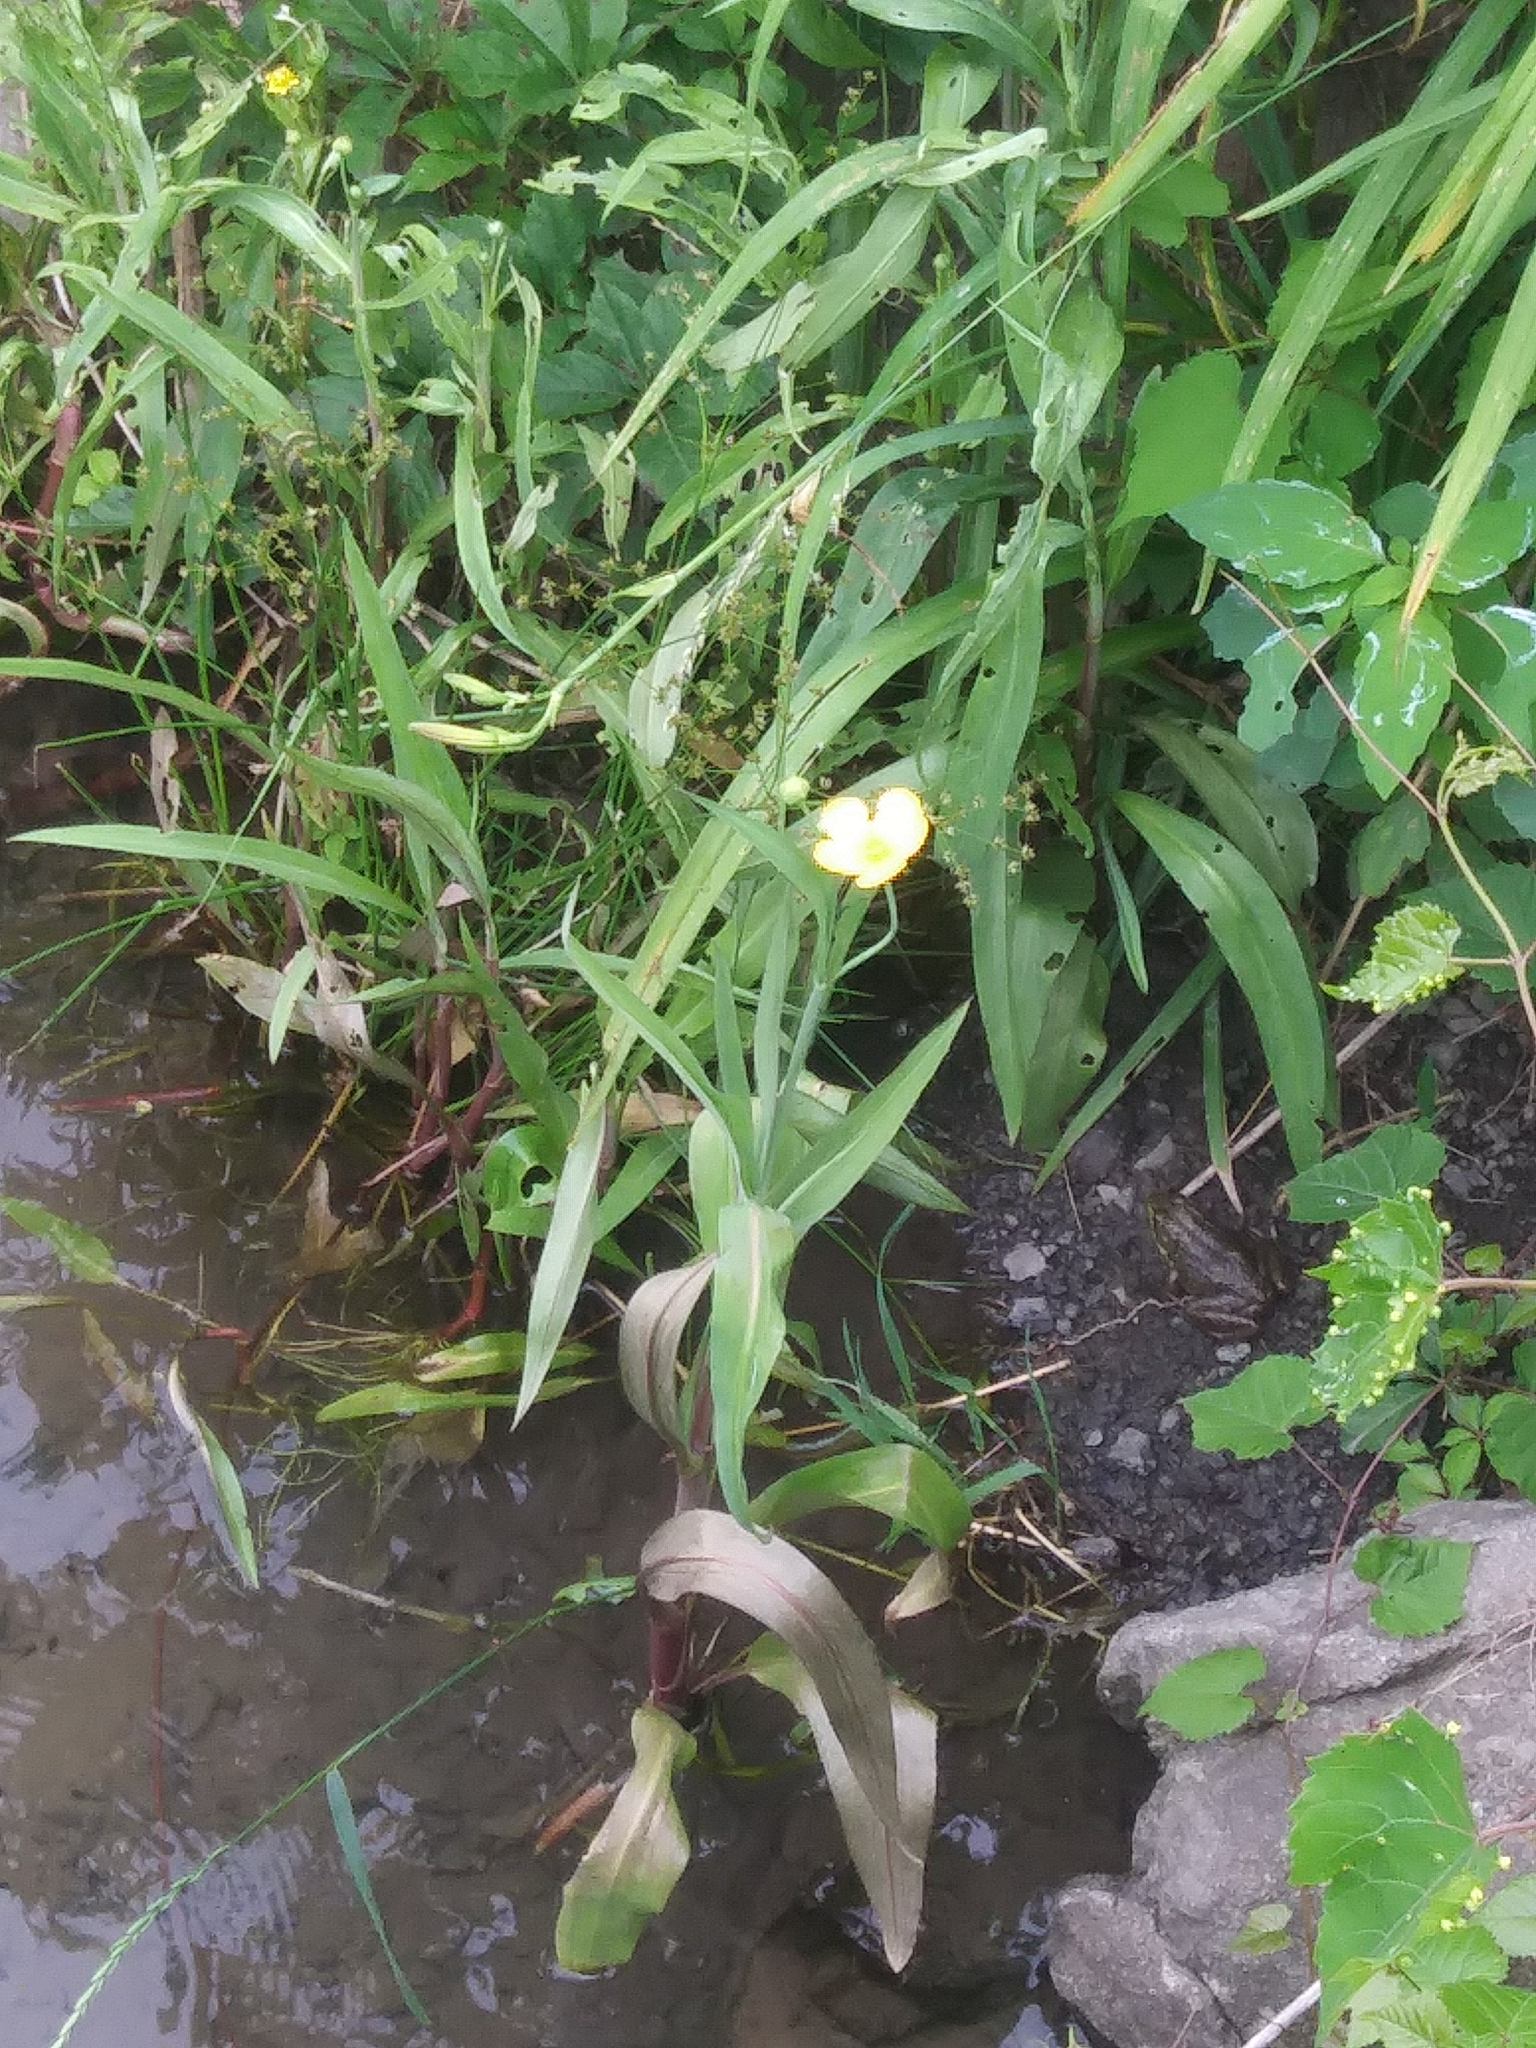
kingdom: Plantae
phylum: Tracheophyta
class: Magnoliopsida
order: Ranunculales
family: Ranunculaceae
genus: Ranunculus
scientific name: Ranunculus lingua
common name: Greater spearwort
